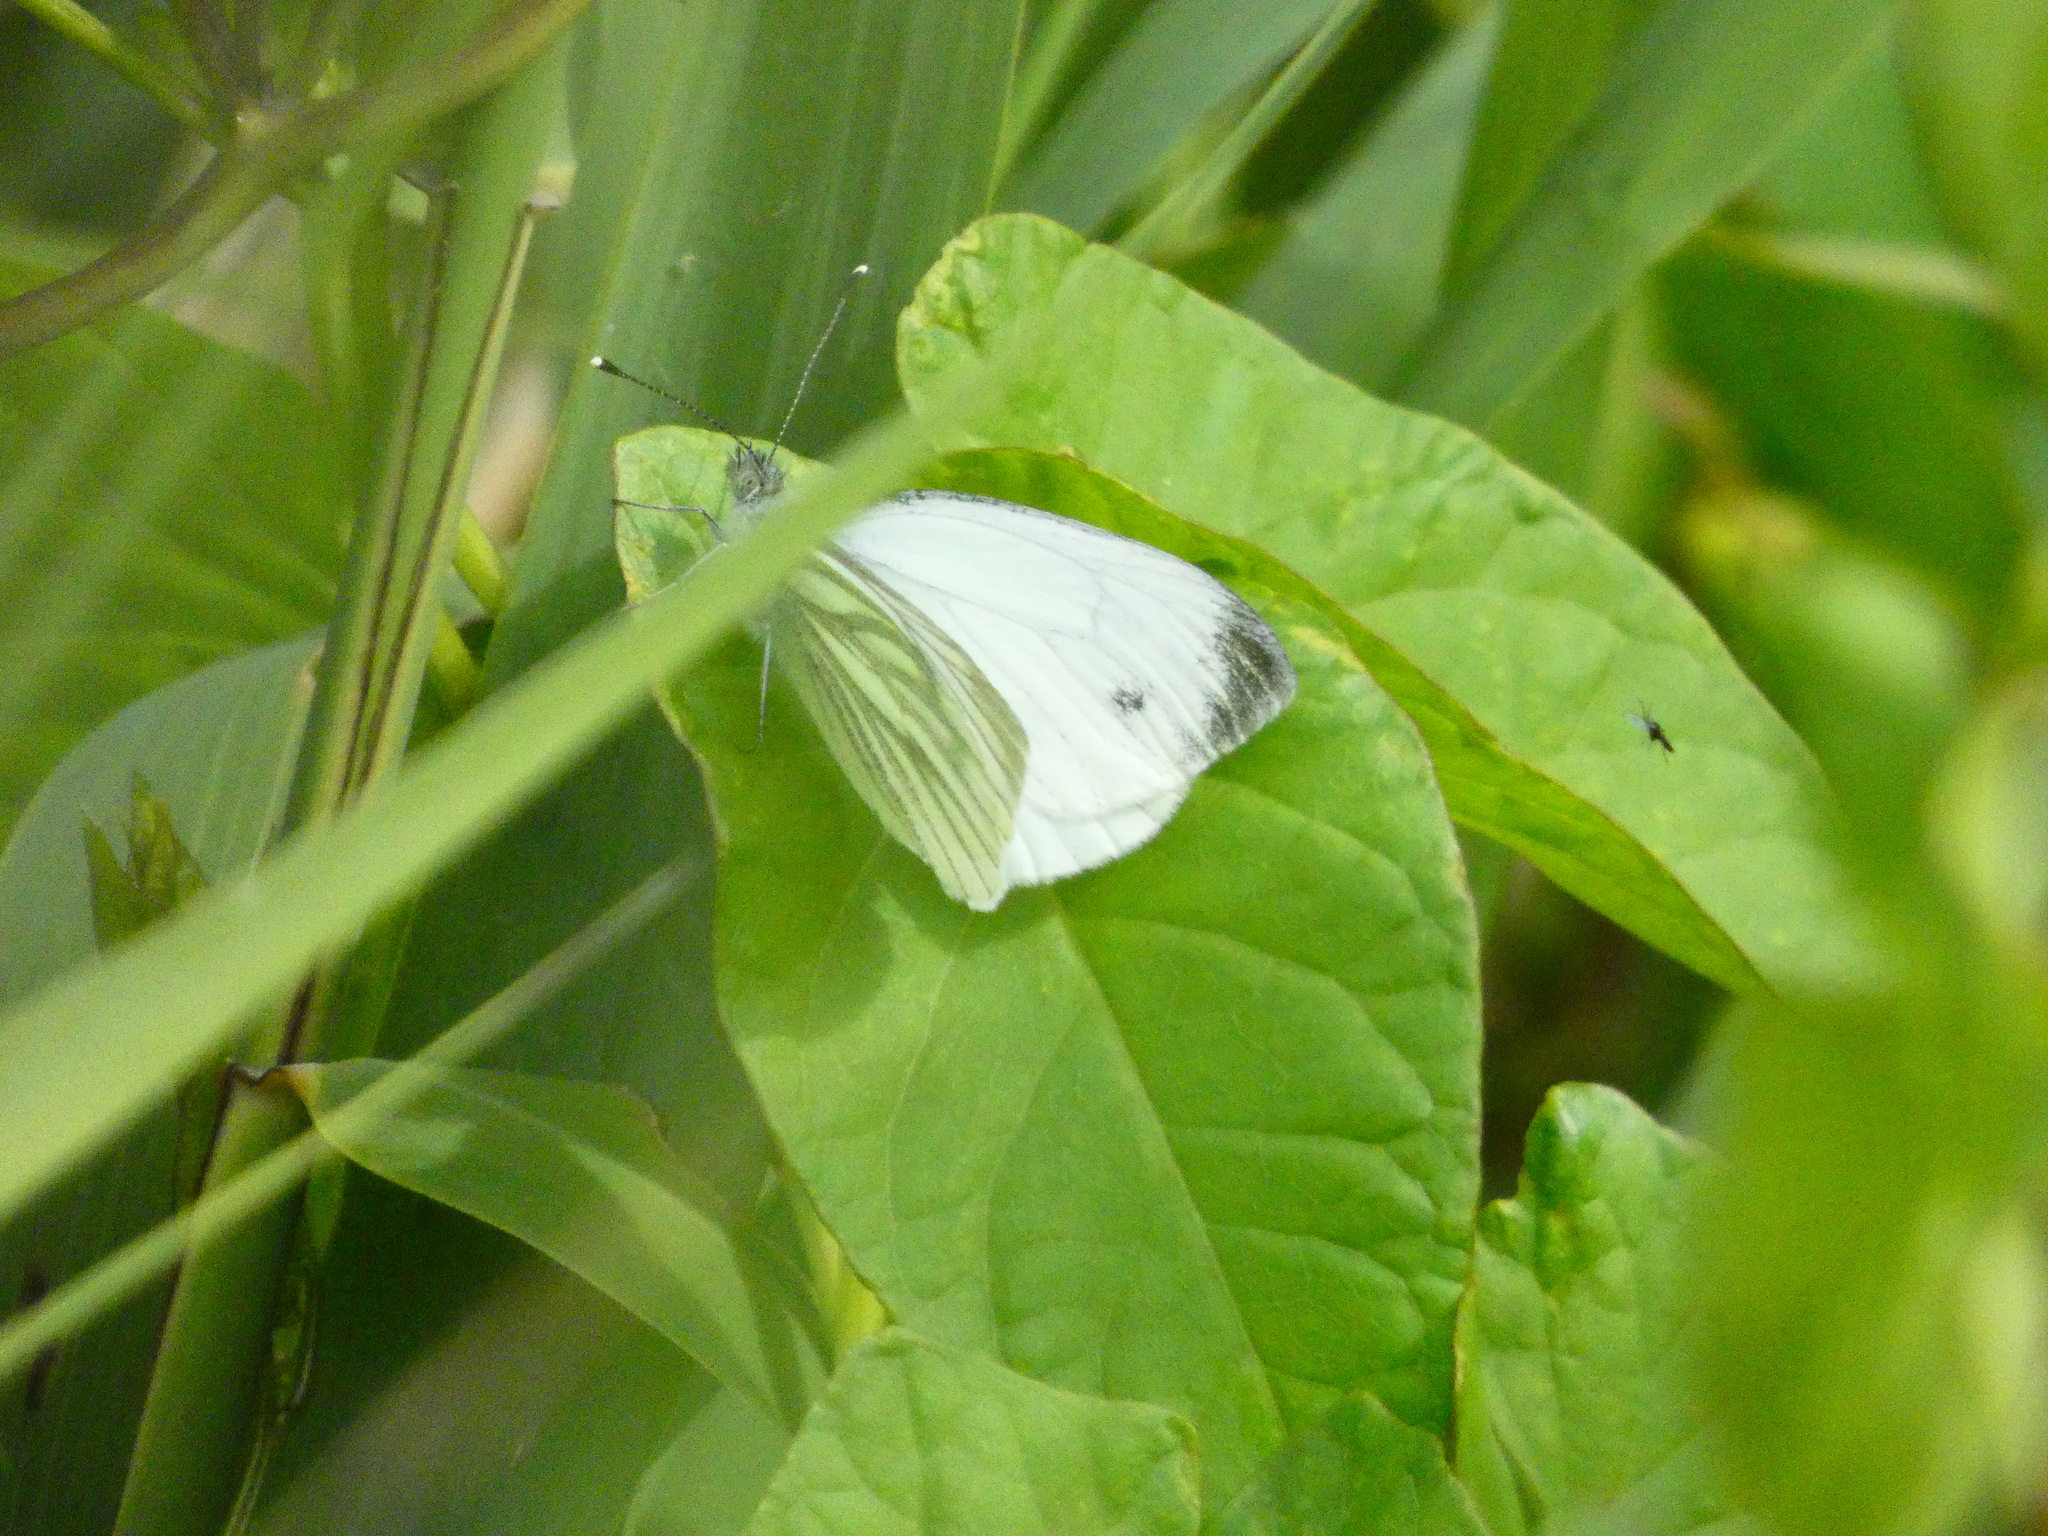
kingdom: Animalia
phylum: Arthropoda
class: Insecta
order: Lepidoptera
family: Pieridae
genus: Pieris
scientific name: Pieris napi
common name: Green-veined white
